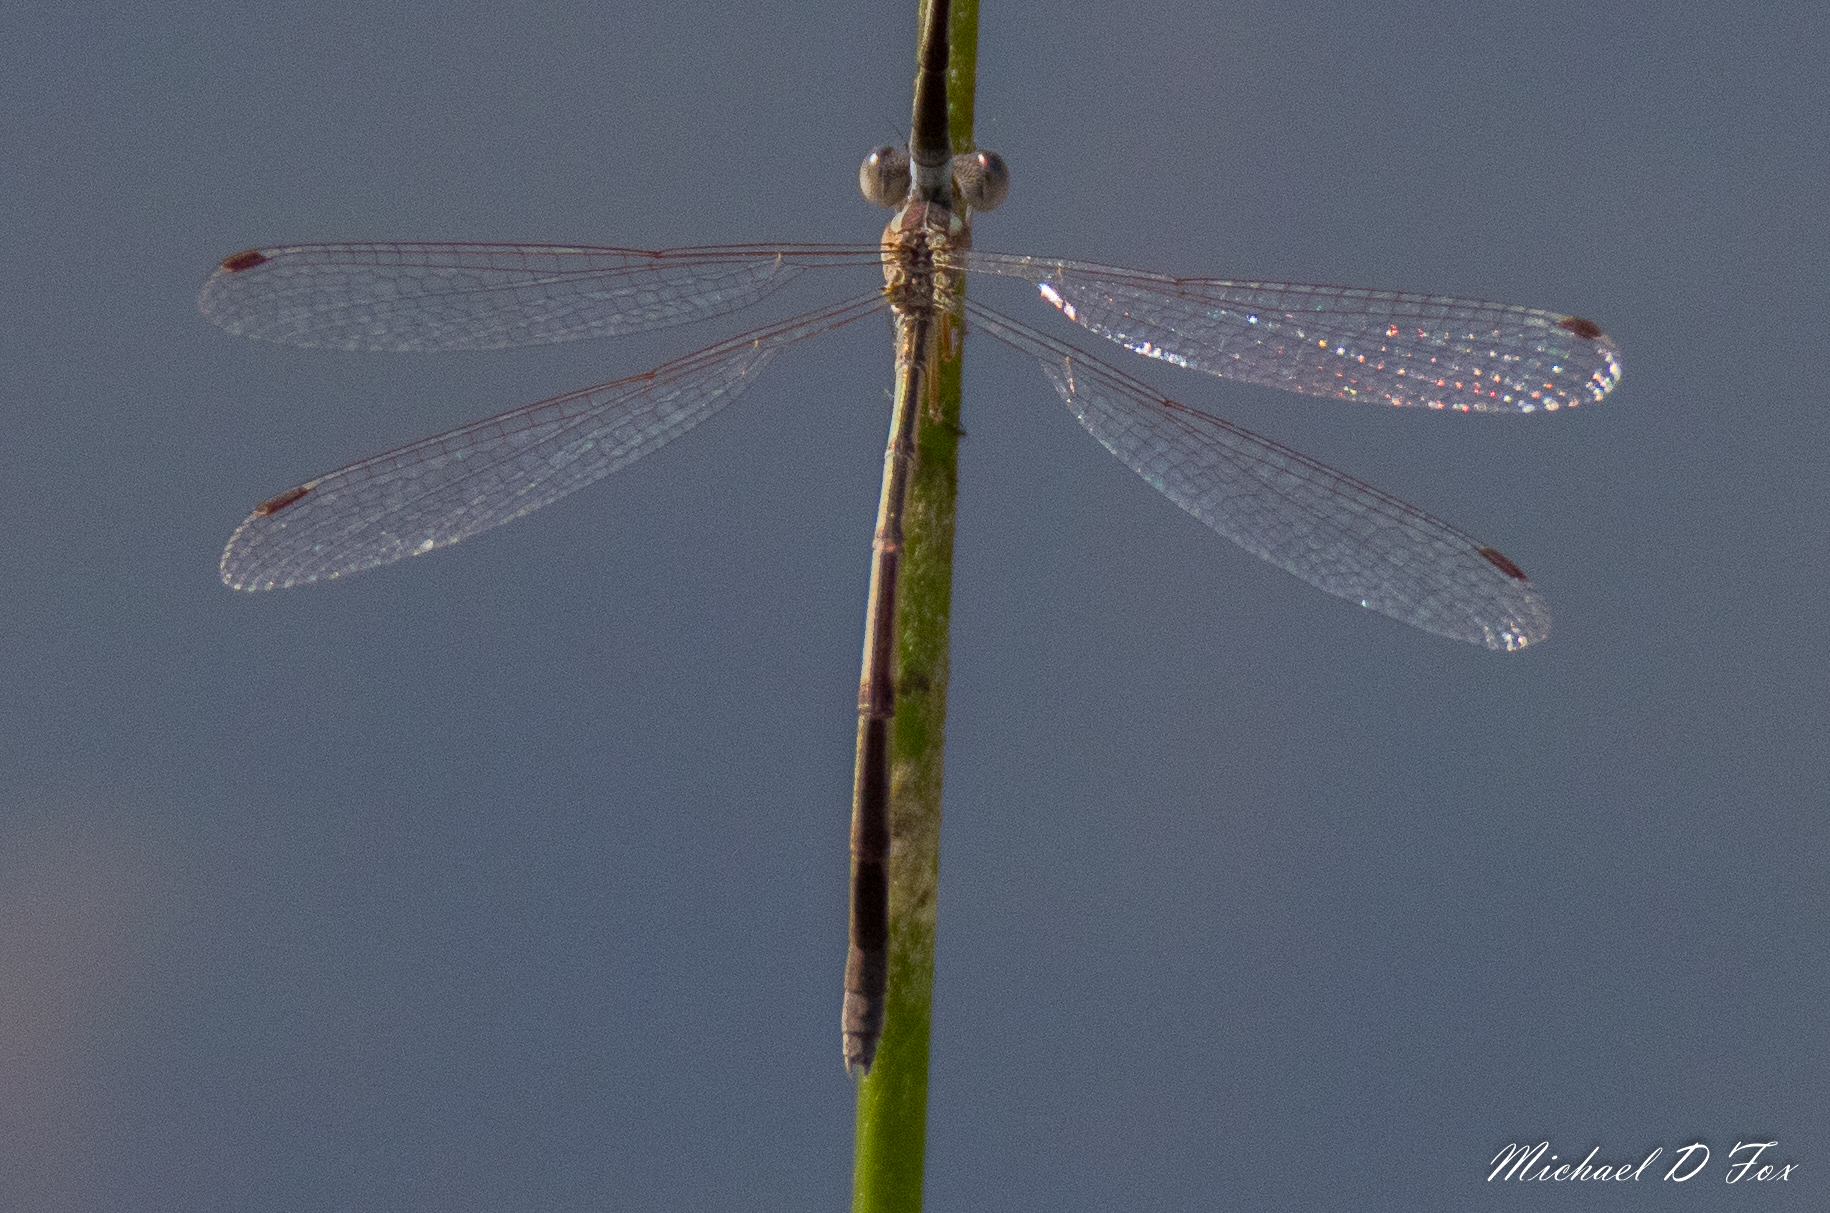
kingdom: Animalia
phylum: Arthropoda
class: Insecta
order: Odonata
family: Lestidae
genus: Lestes
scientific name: Lestes alacer
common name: Plateau spreadwing
